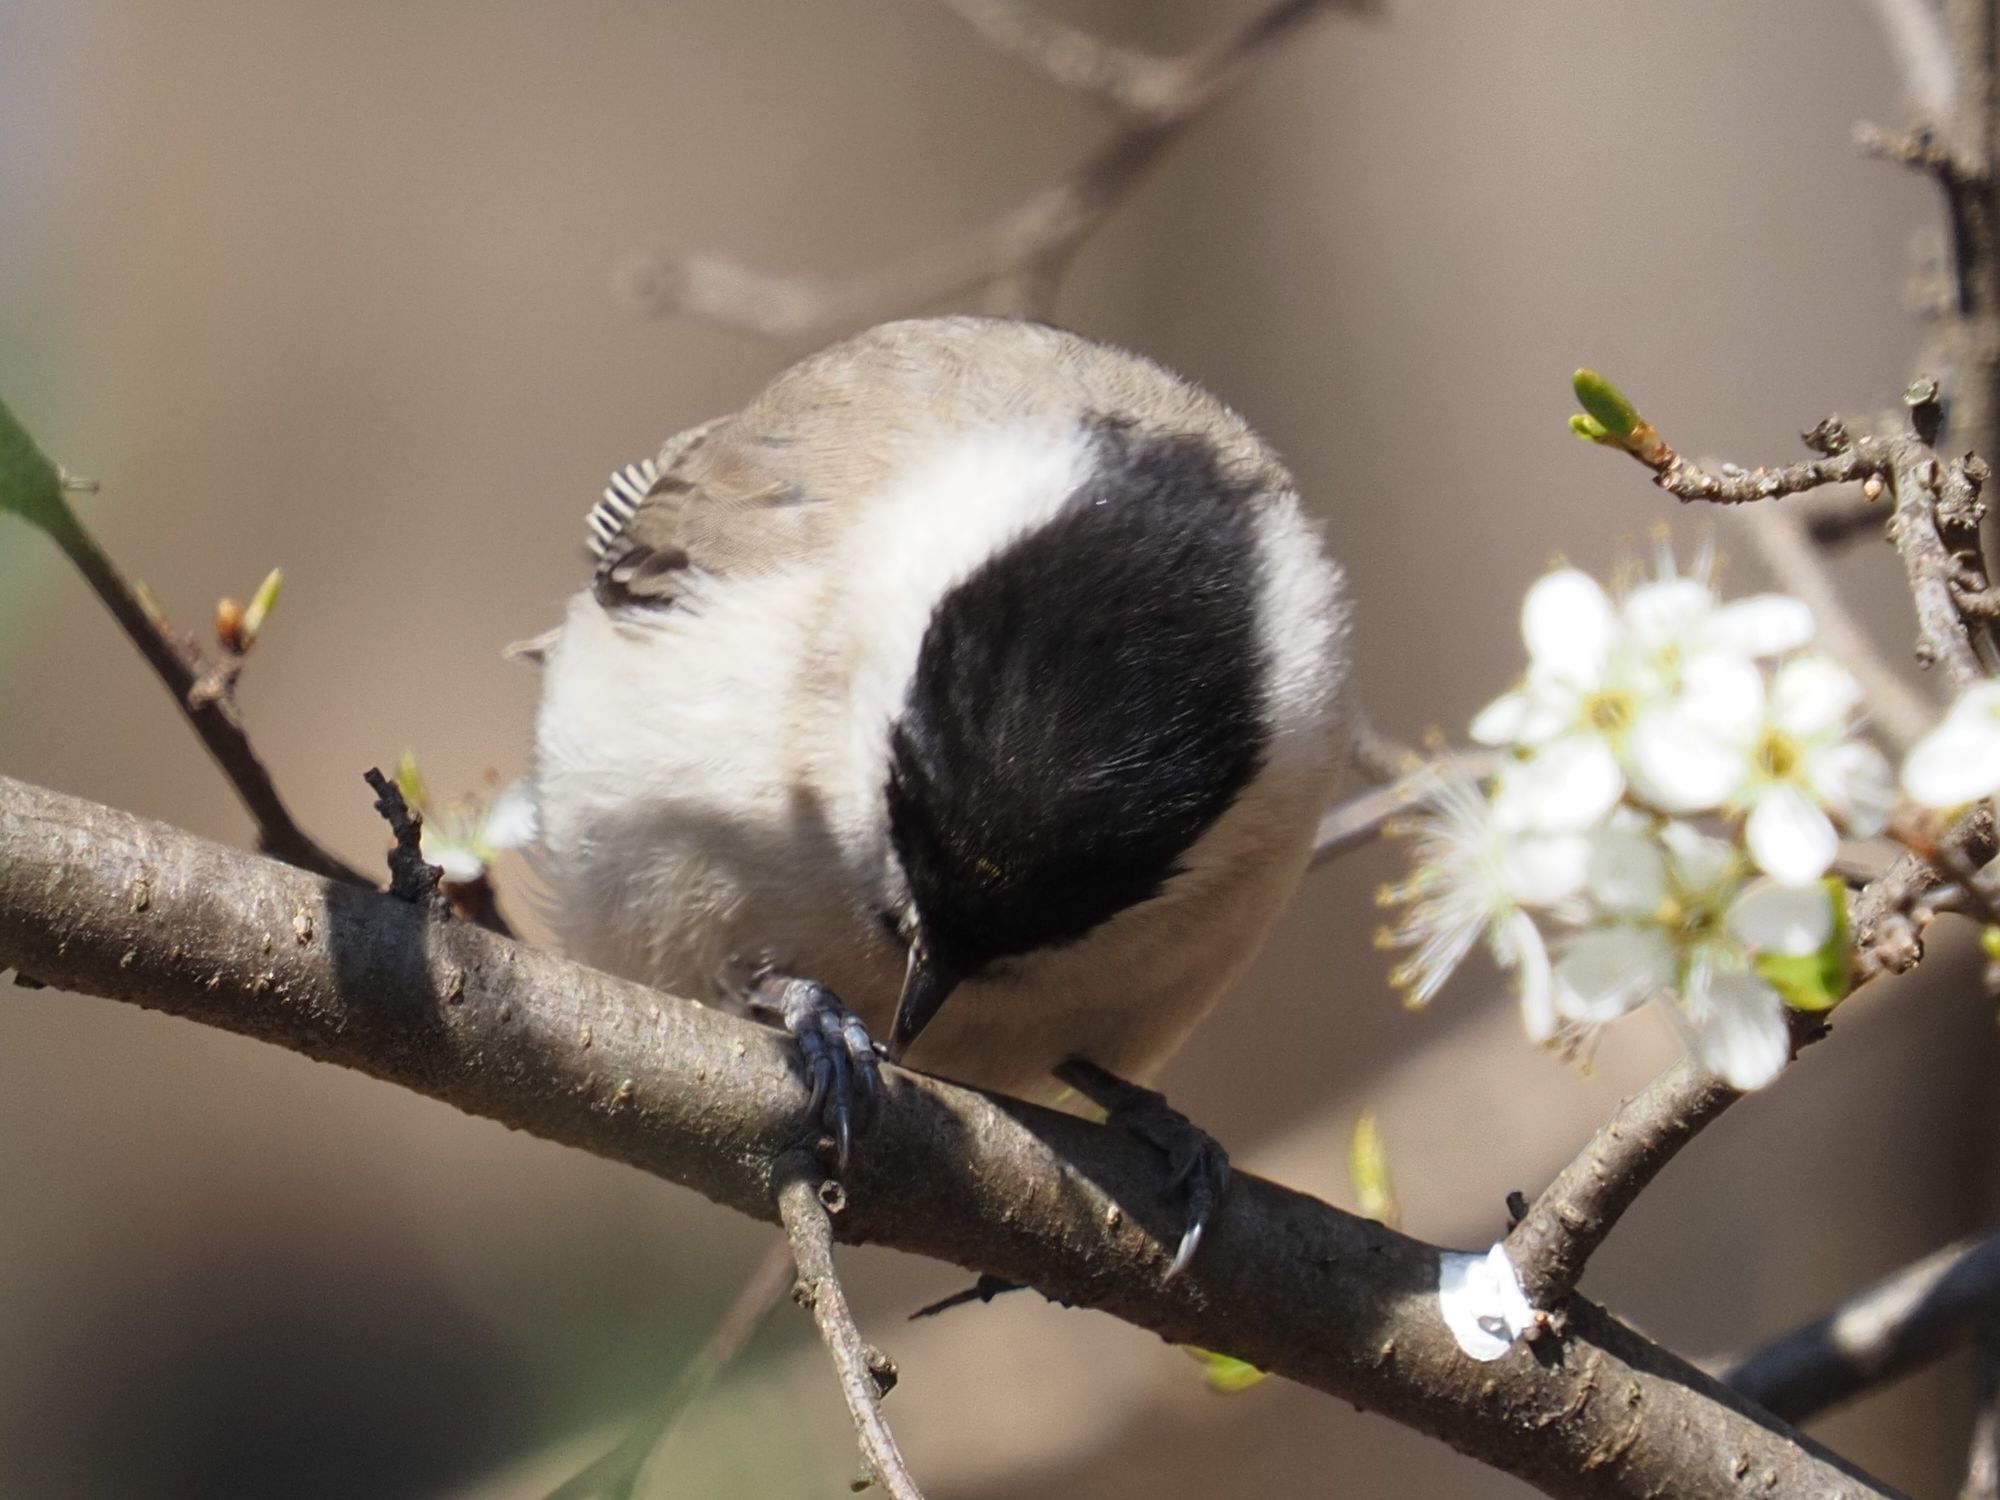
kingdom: Animalia
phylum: Chordata
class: Aves
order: Passeriformes
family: Paridae
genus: Poecile
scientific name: Poecile palustris
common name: Marsh tit
